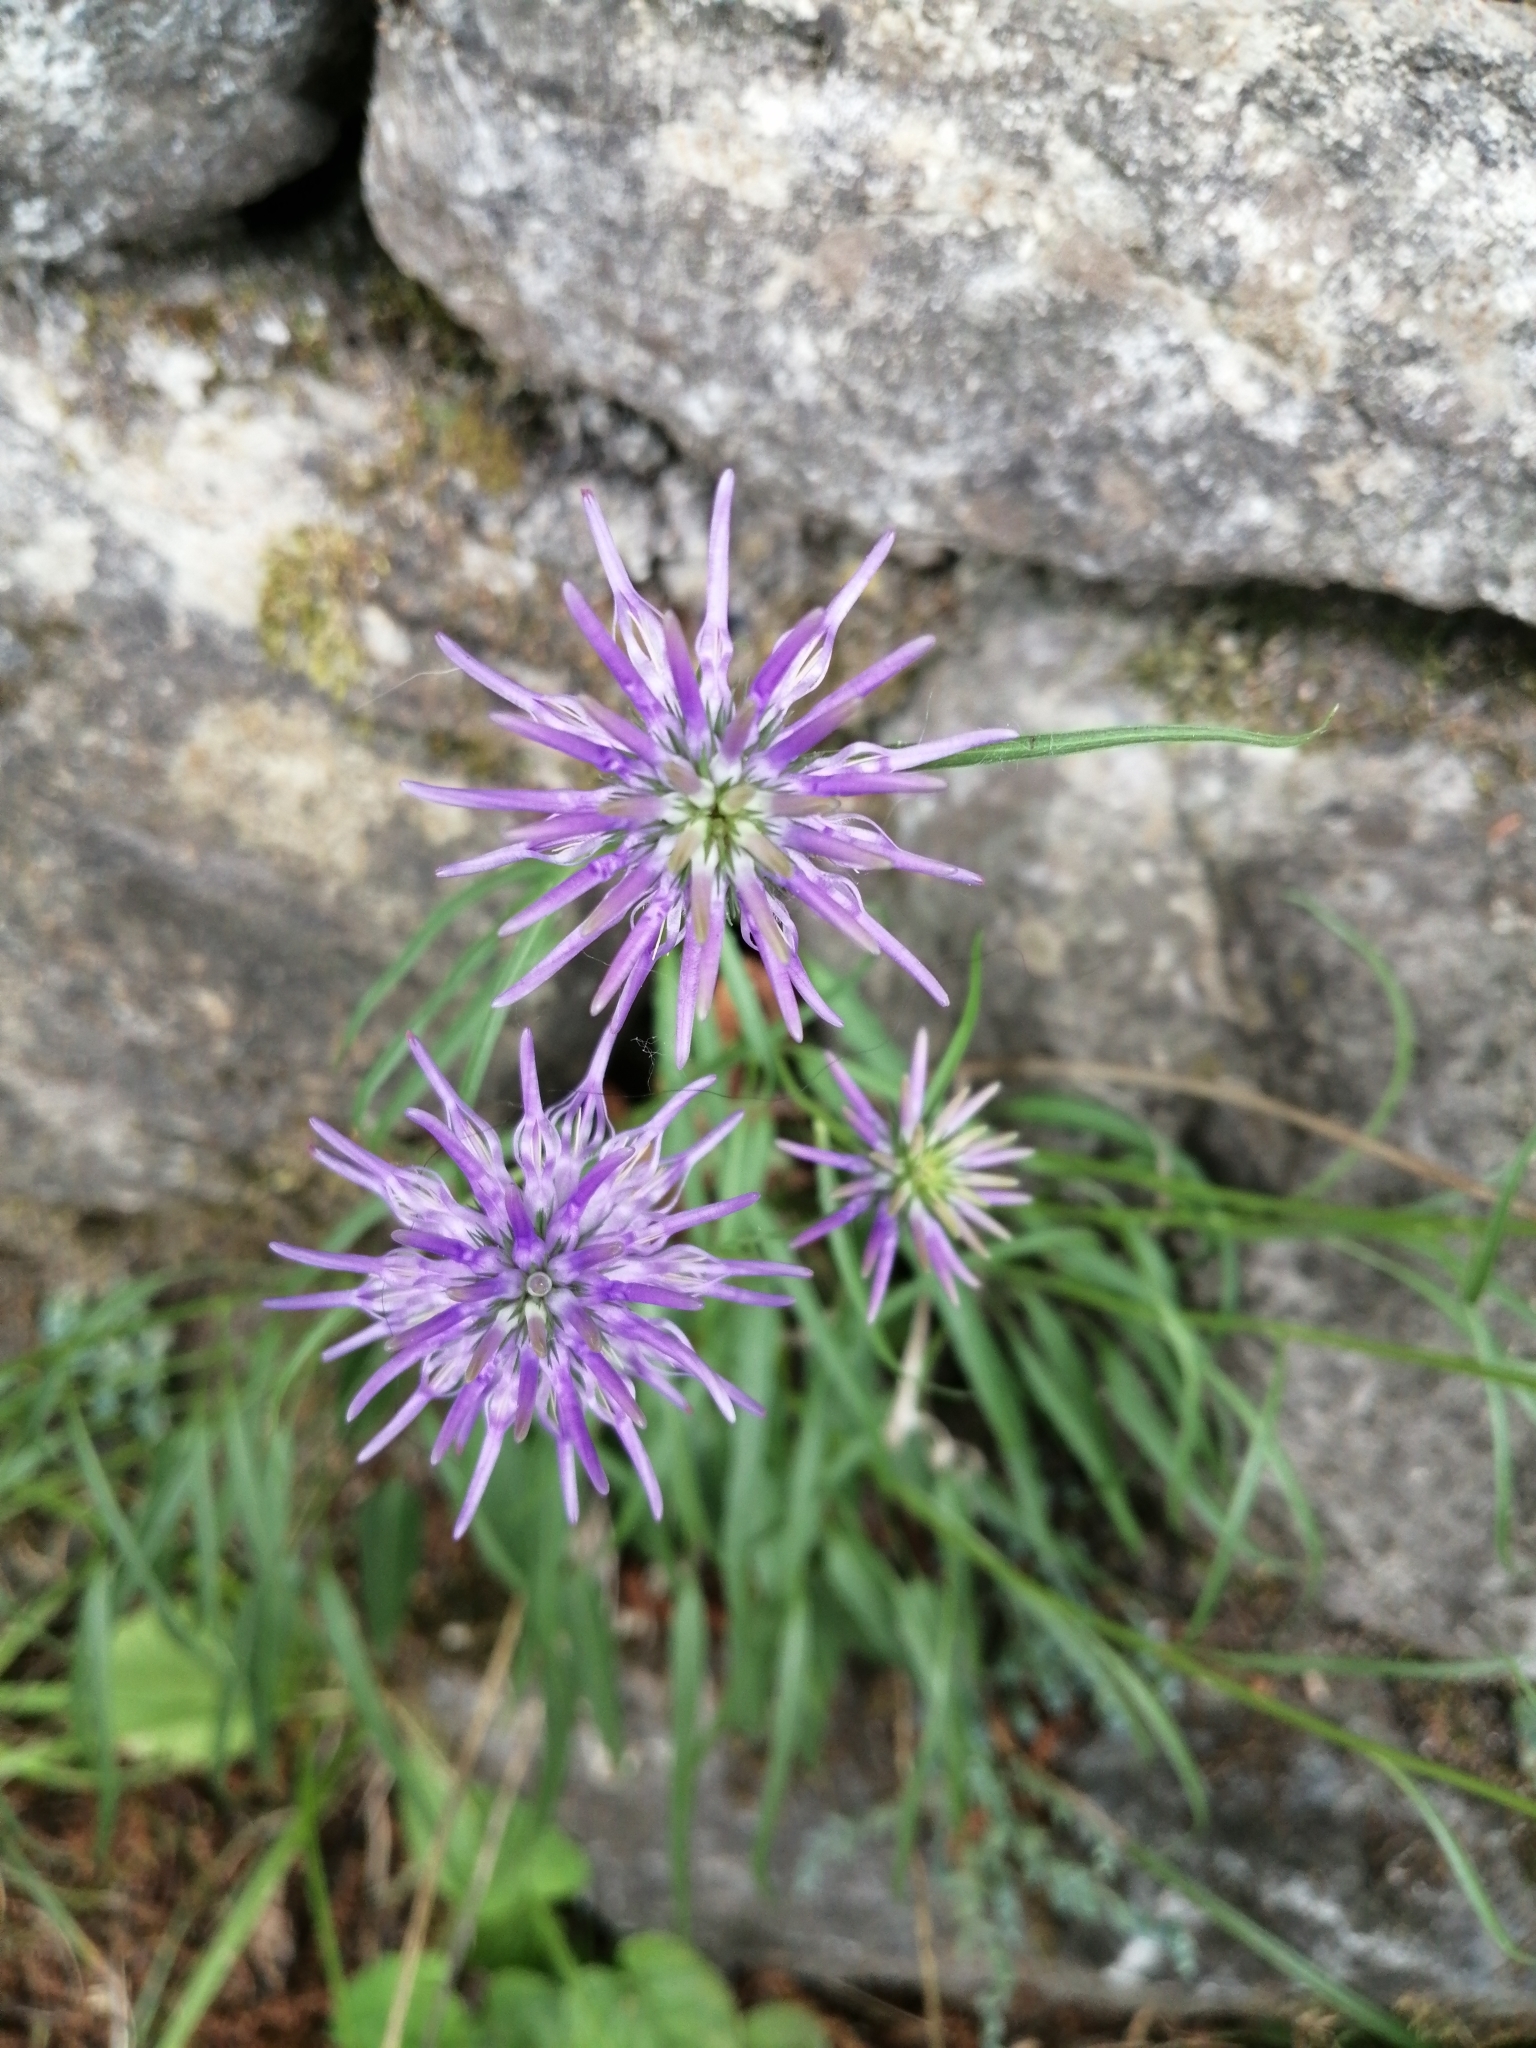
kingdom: Plantae
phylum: Tracheophyta
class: Magnoliopsida
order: Asterales
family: Campanulaceae
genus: Phyteuma
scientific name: Phyteuma scheuchzeri
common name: Oxford rampion
